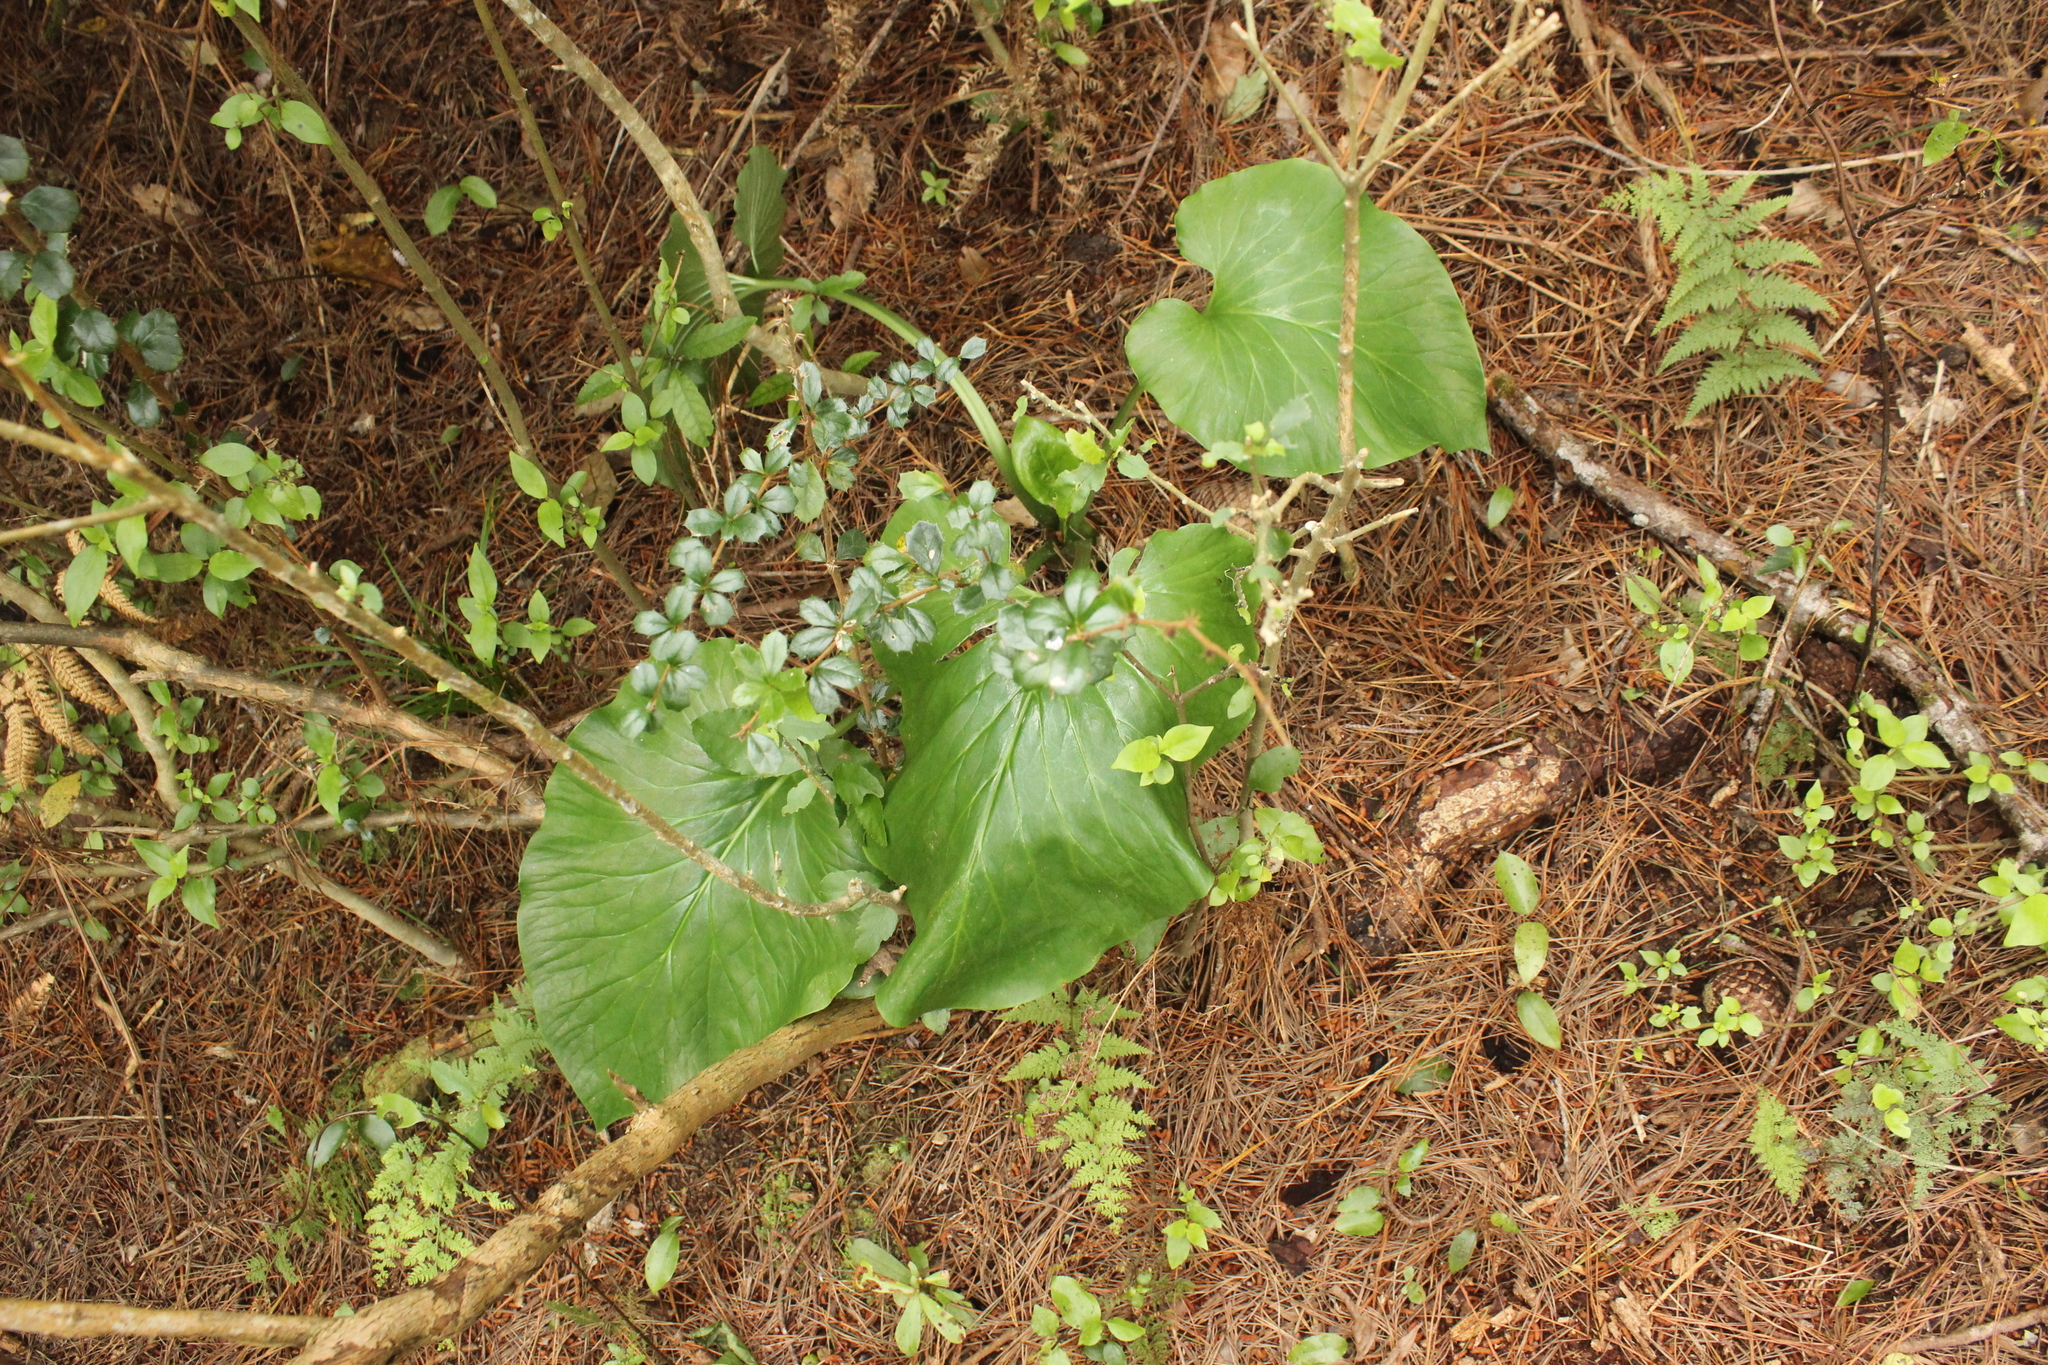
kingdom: Plantae
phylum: Tracheophyta
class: Liliopsida
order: Liliales
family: Liliaceae
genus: Cardiocrinum
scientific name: Cardiocrinum giganteum
